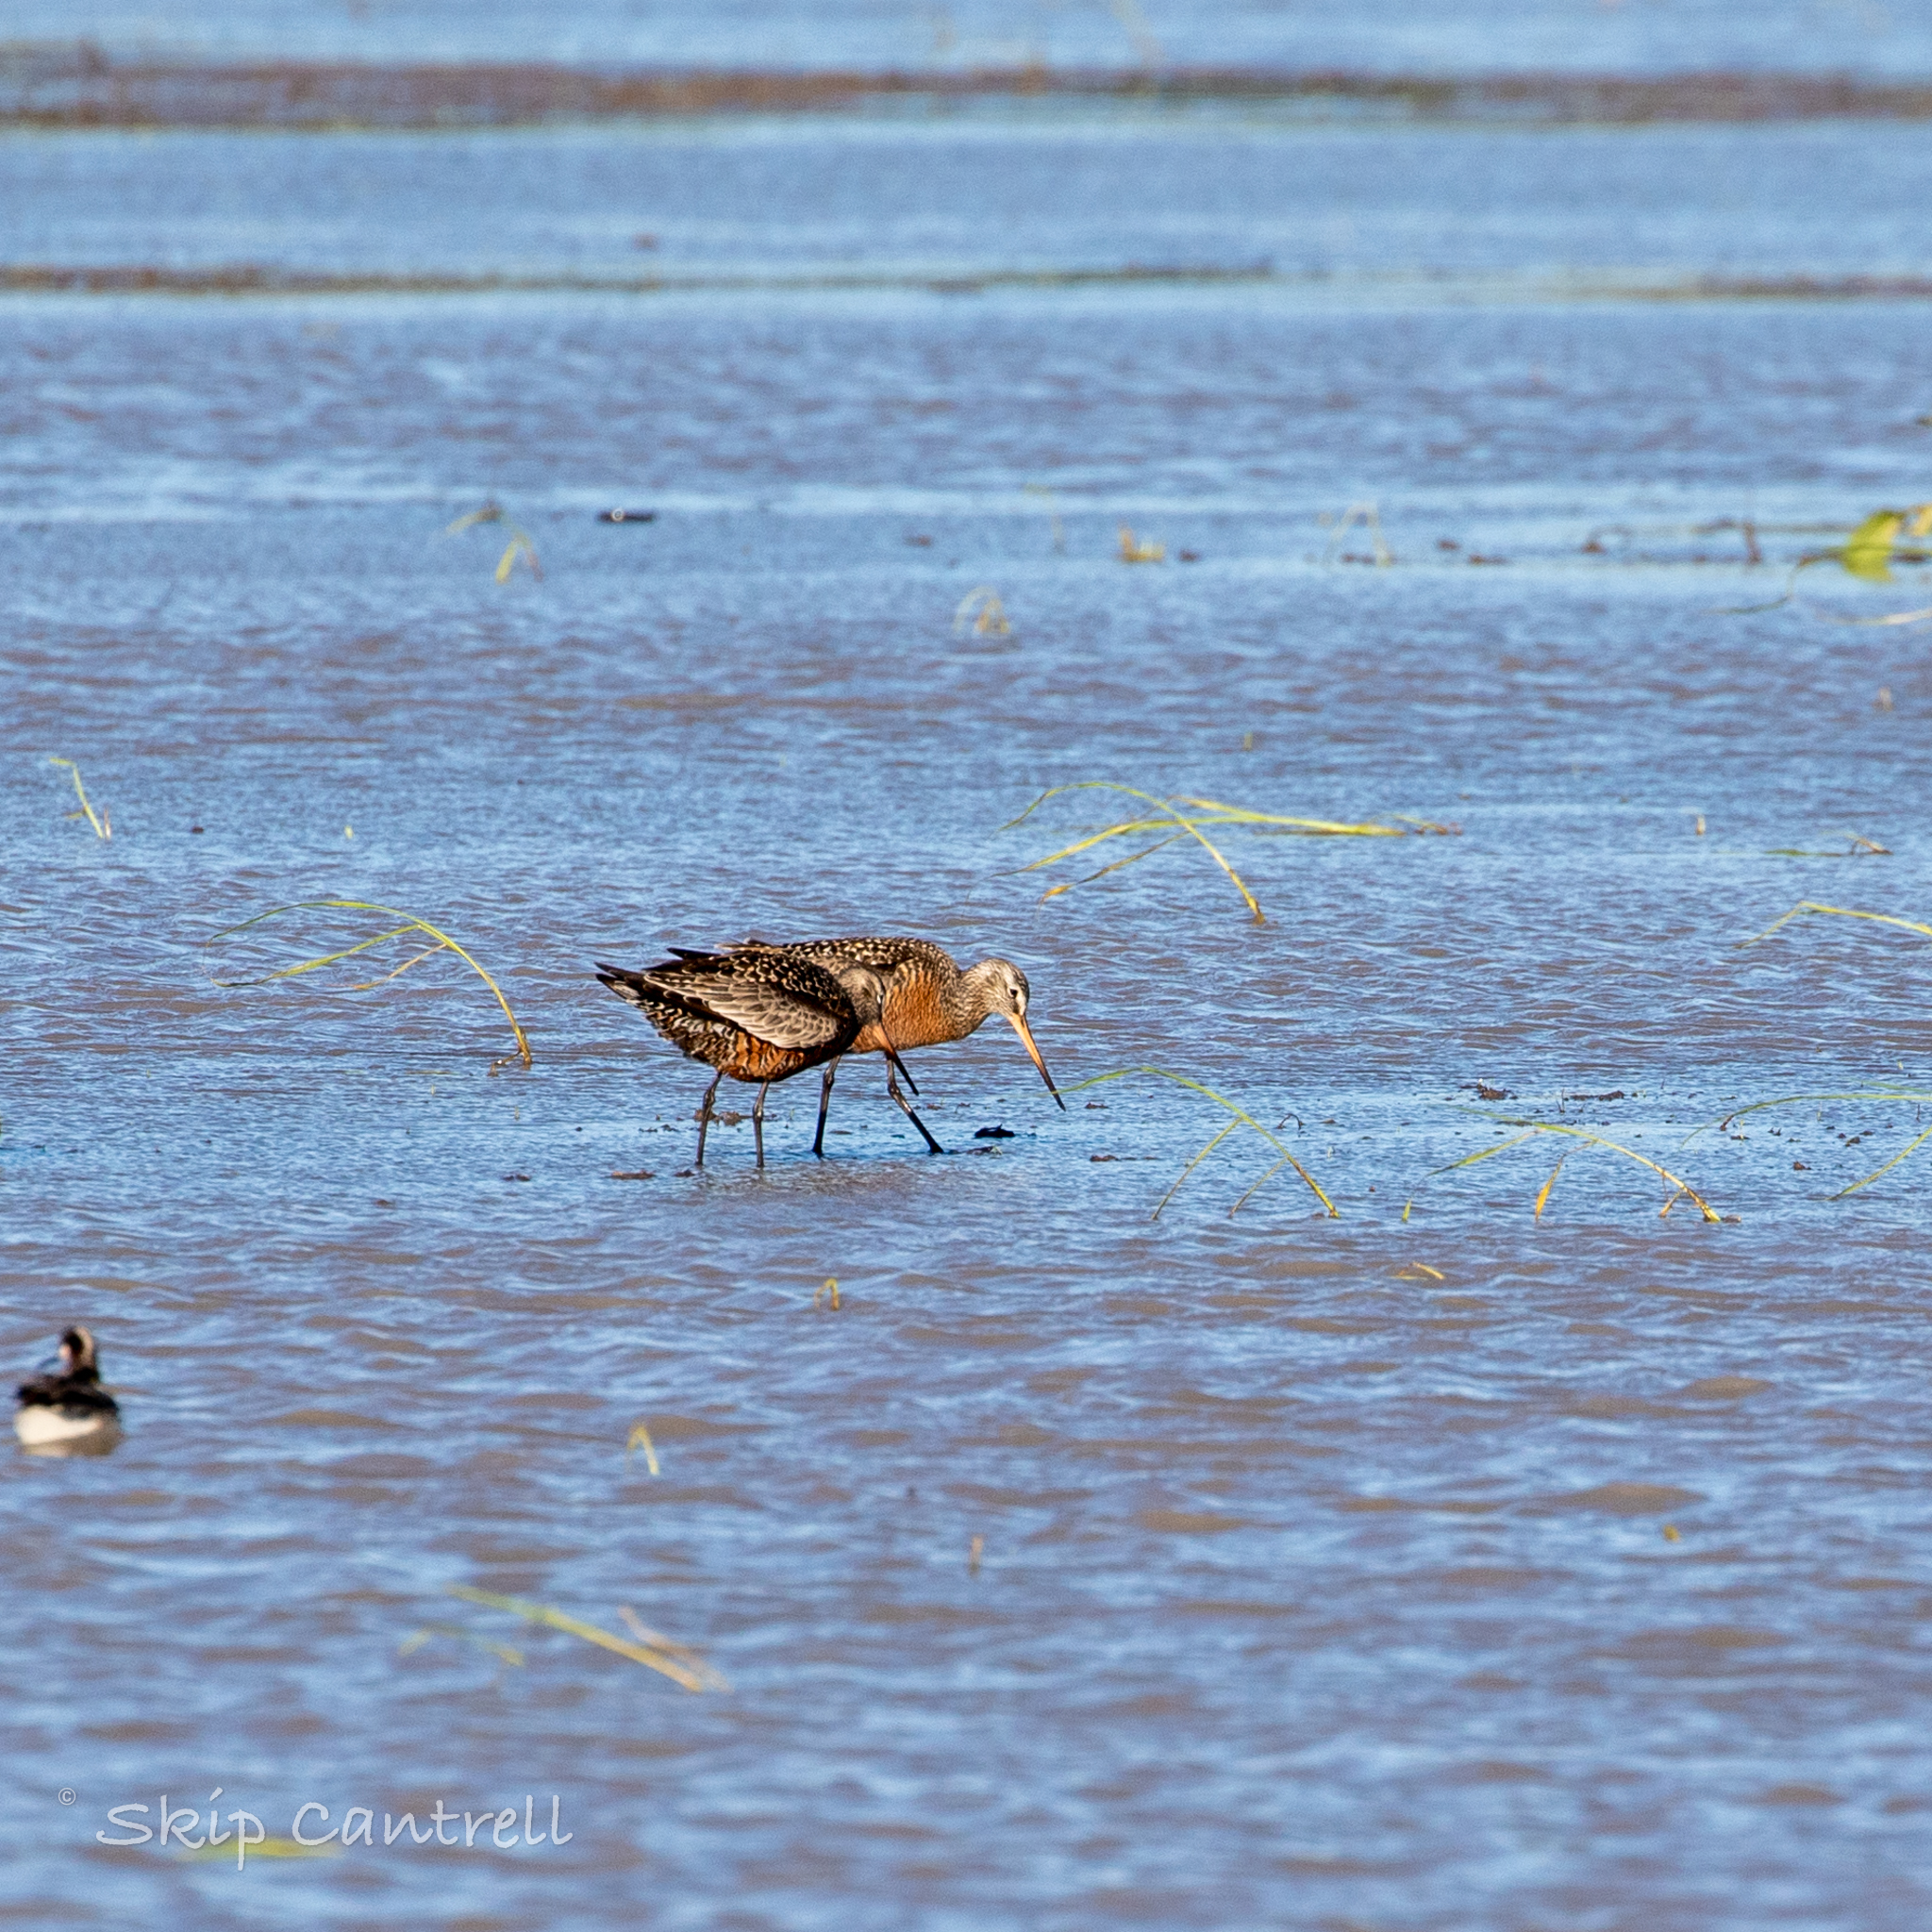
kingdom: Animalia
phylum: Chordata
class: Aves
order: Charadriiformes
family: Scolopacidae
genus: Limosa
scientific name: Limosa haemastica
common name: Hudsonian godwit
